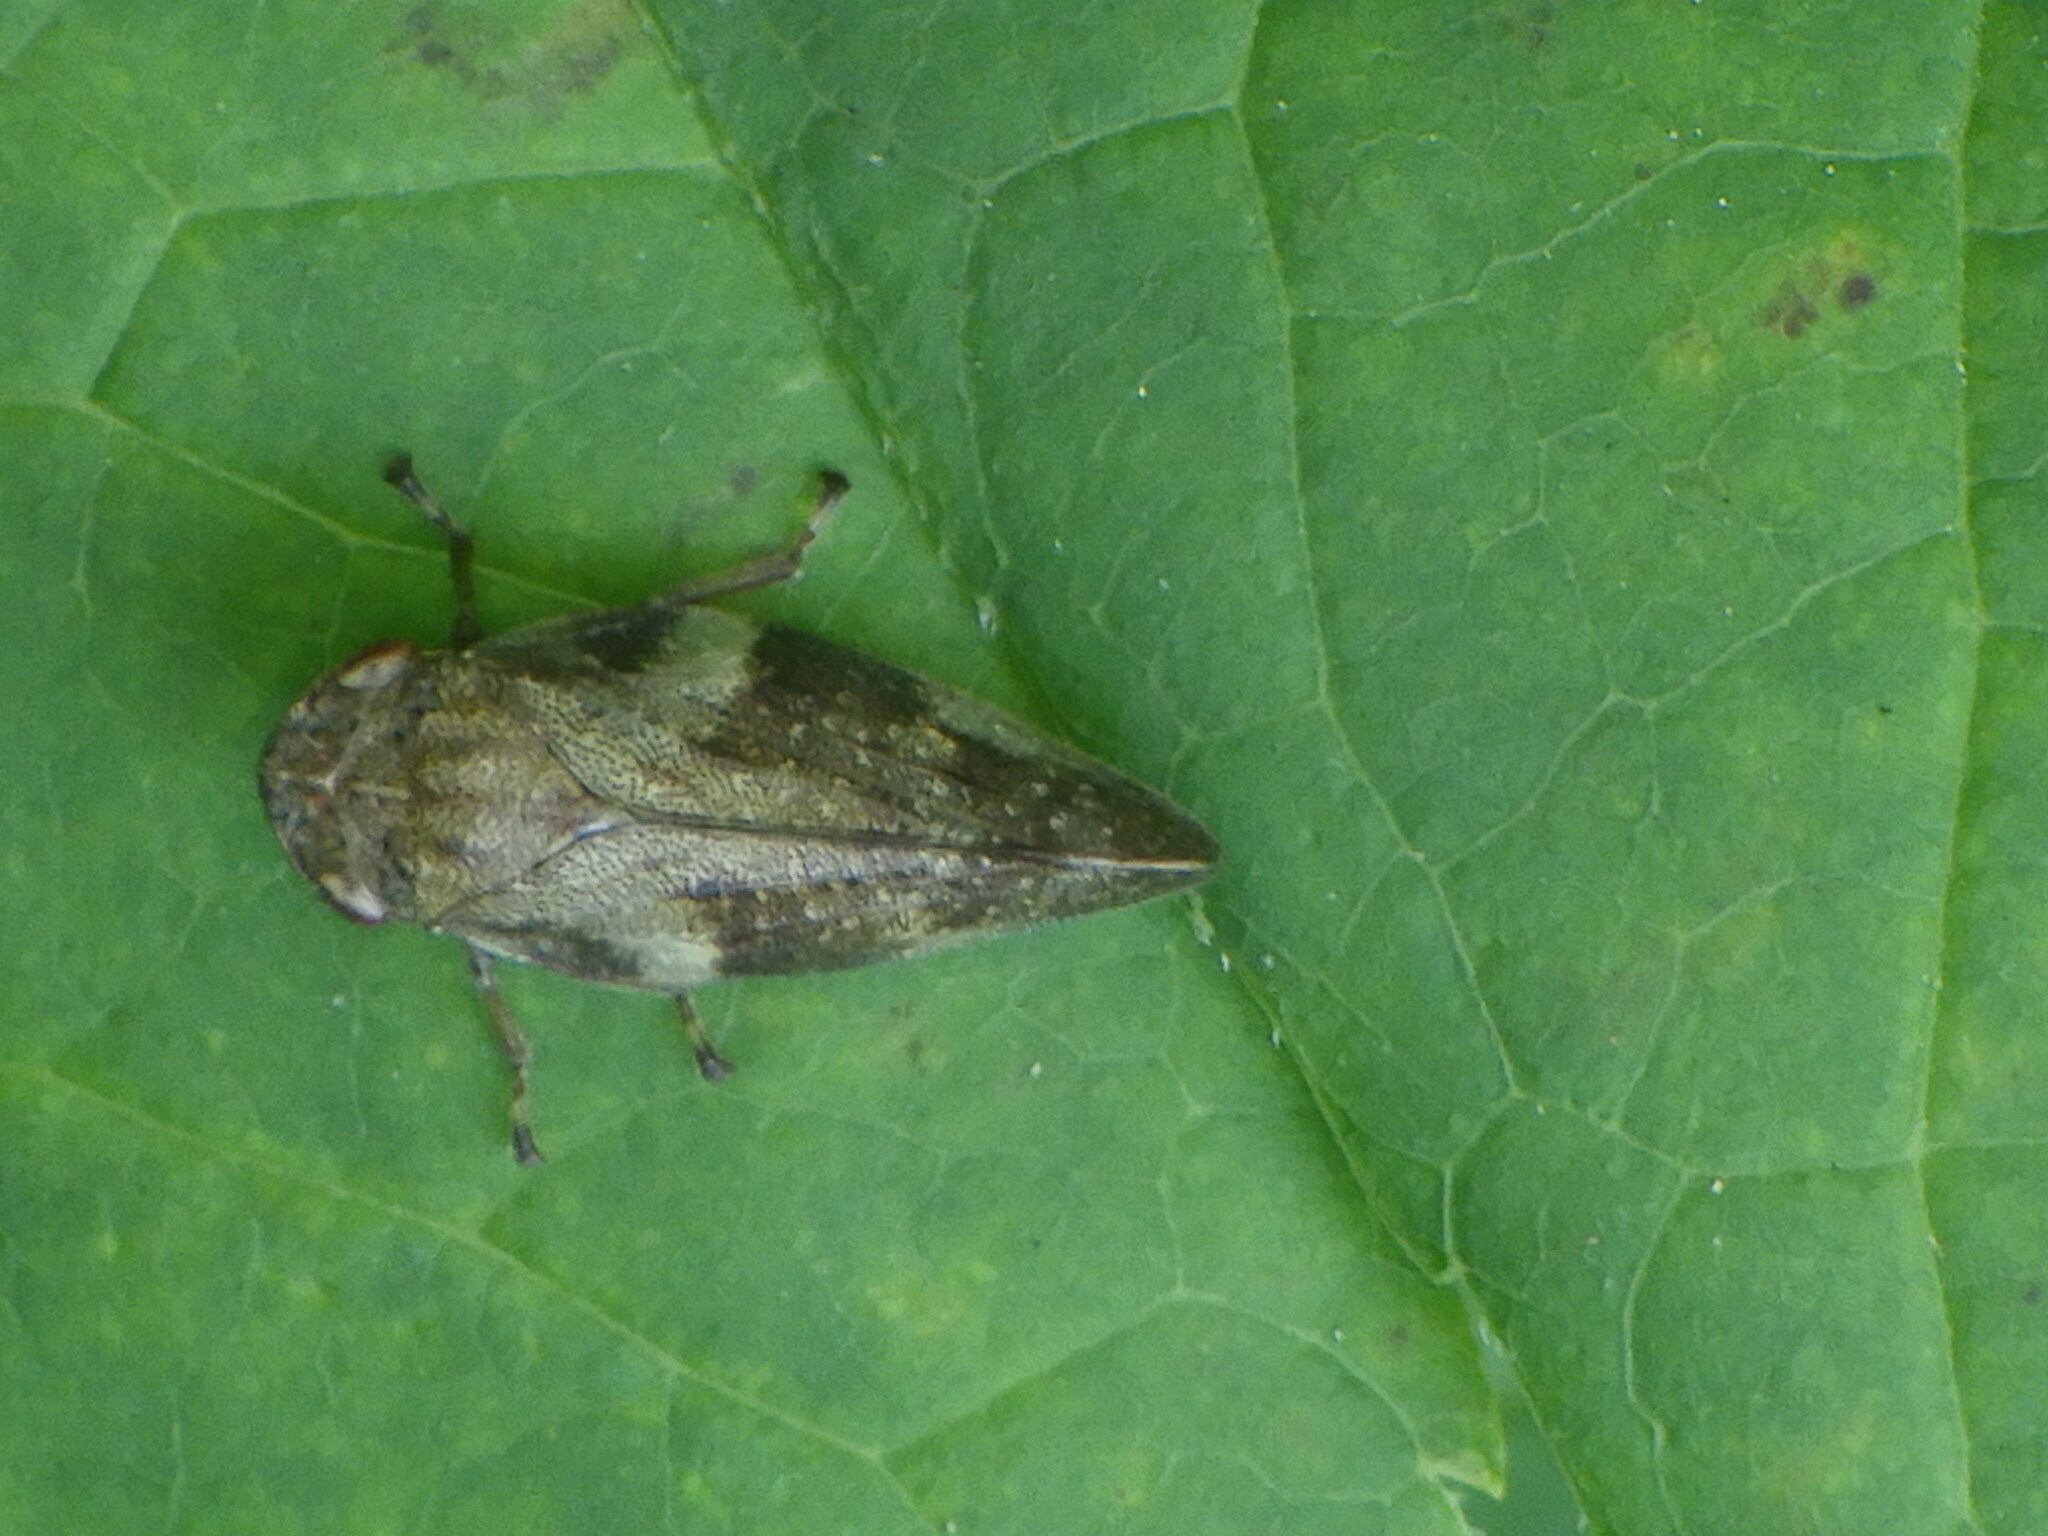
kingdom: Animalia
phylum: Arthropoda
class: Insecta
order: Hemiptera
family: Aphrophoridae
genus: Aphrophora
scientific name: Aphrophora alni
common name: European alder spittlebug
